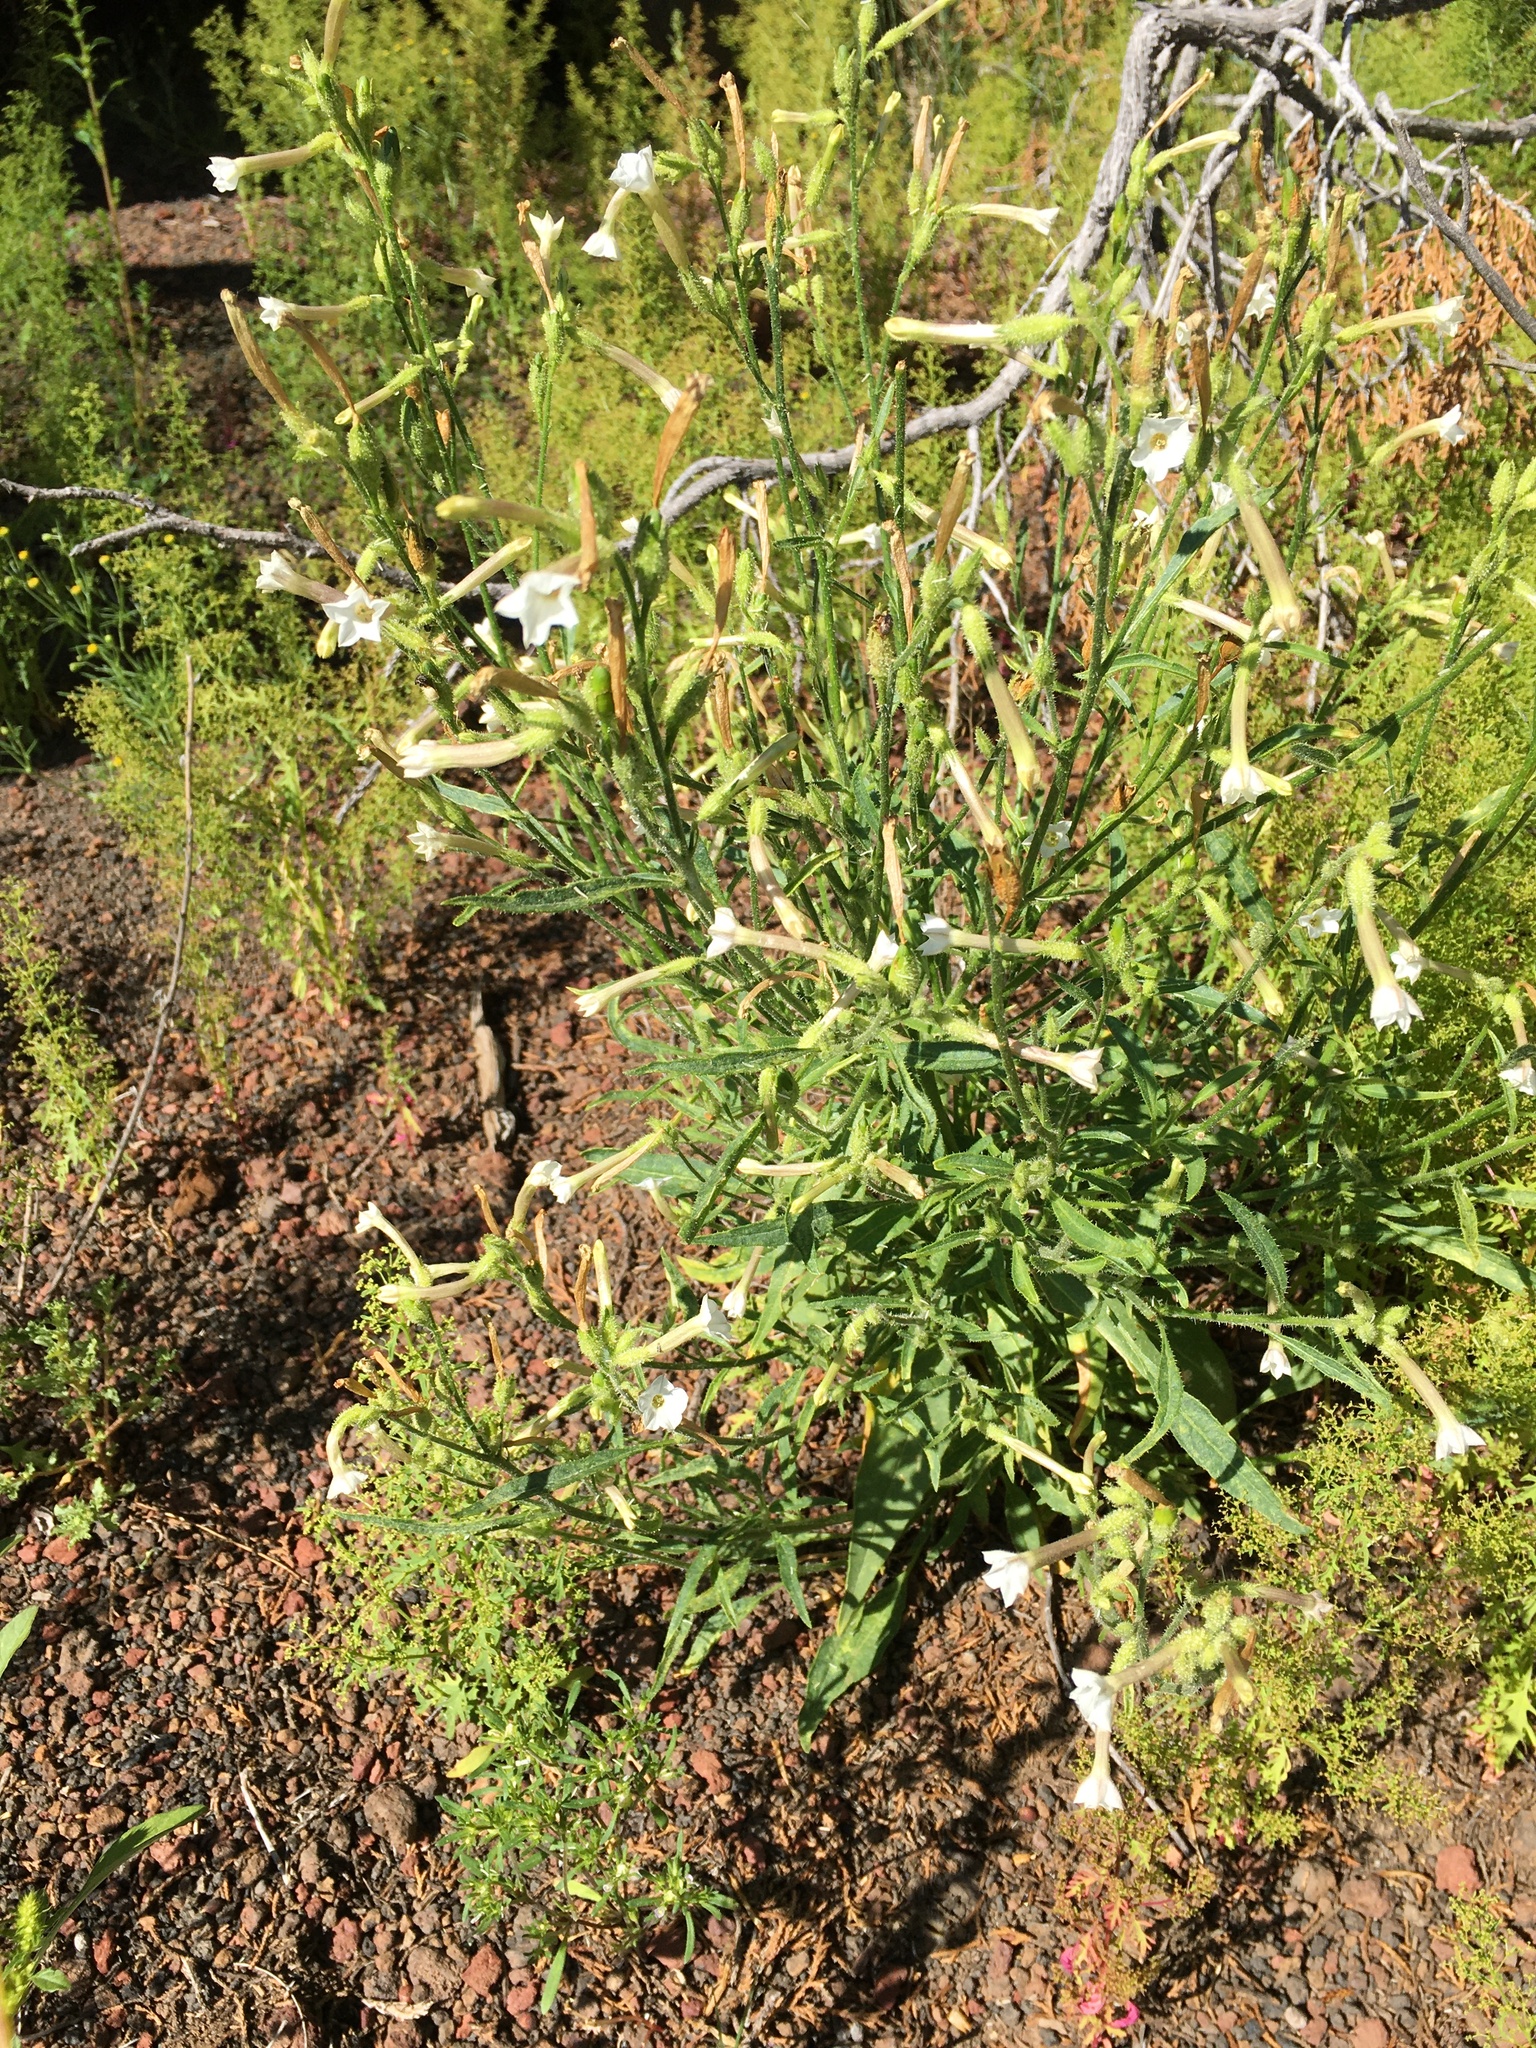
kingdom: Plantae
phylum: Tracheophyta
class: Magnoliopsida
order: Solanales
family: Solanaceae
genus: Nicotiana
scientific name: Nicotiana attenuata
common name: Coyote tobacco
